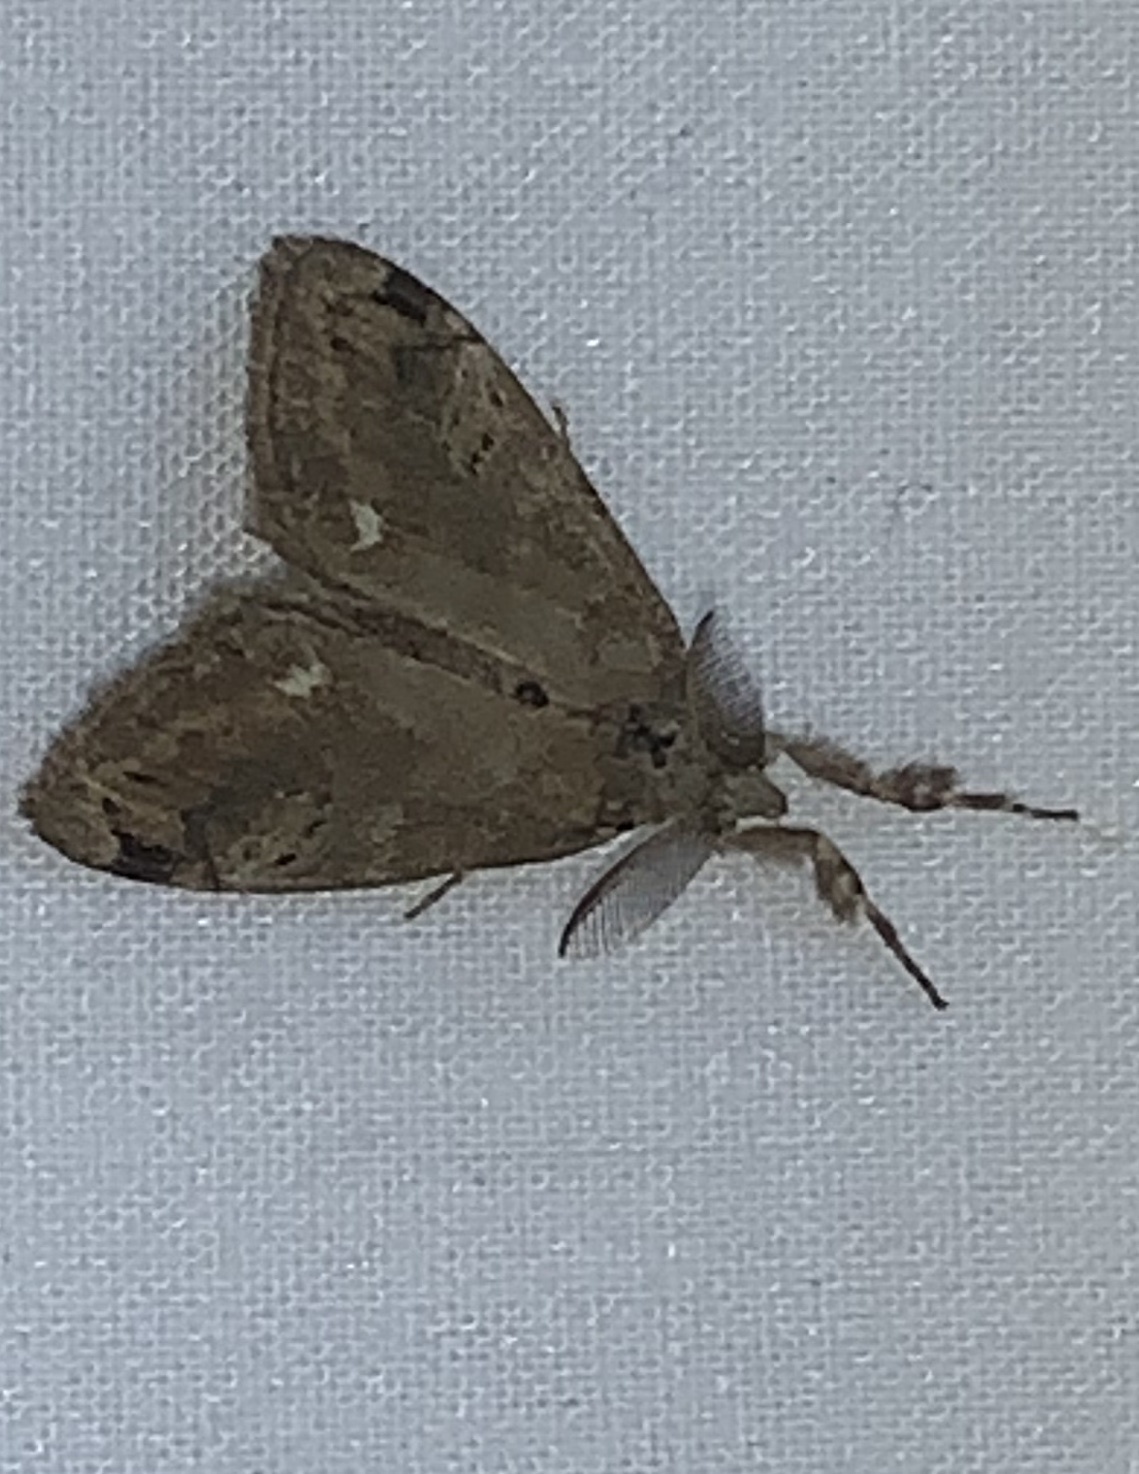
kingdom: Animalia
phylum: Arthropoda
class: Insecta
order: Lepidoptera
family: Erebidae
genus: Orgyia
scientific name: Orgyia leucostigma
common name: White-marked tussock moth
